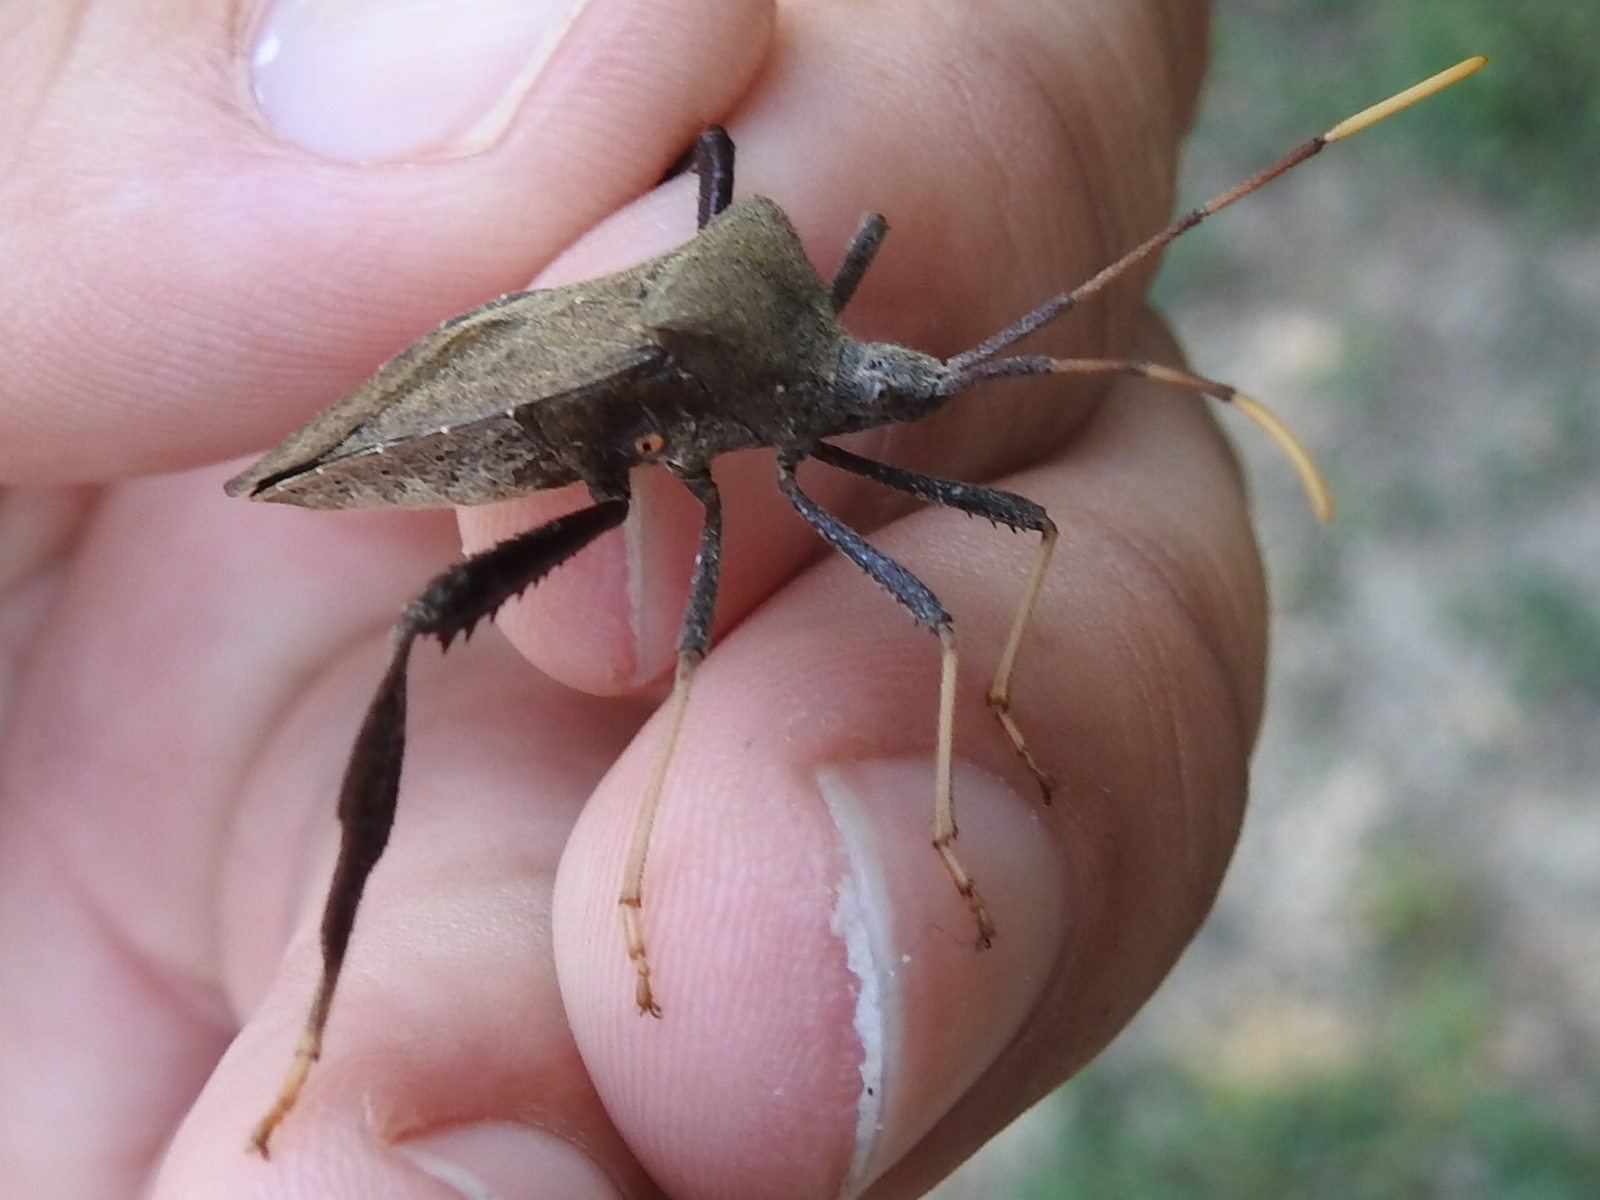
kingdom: Animalia
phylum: Arthropoda
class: Insecta
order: Hemiptera
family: Coreidae
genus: Acanthocephala
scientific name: Acanthocephala terminalis
